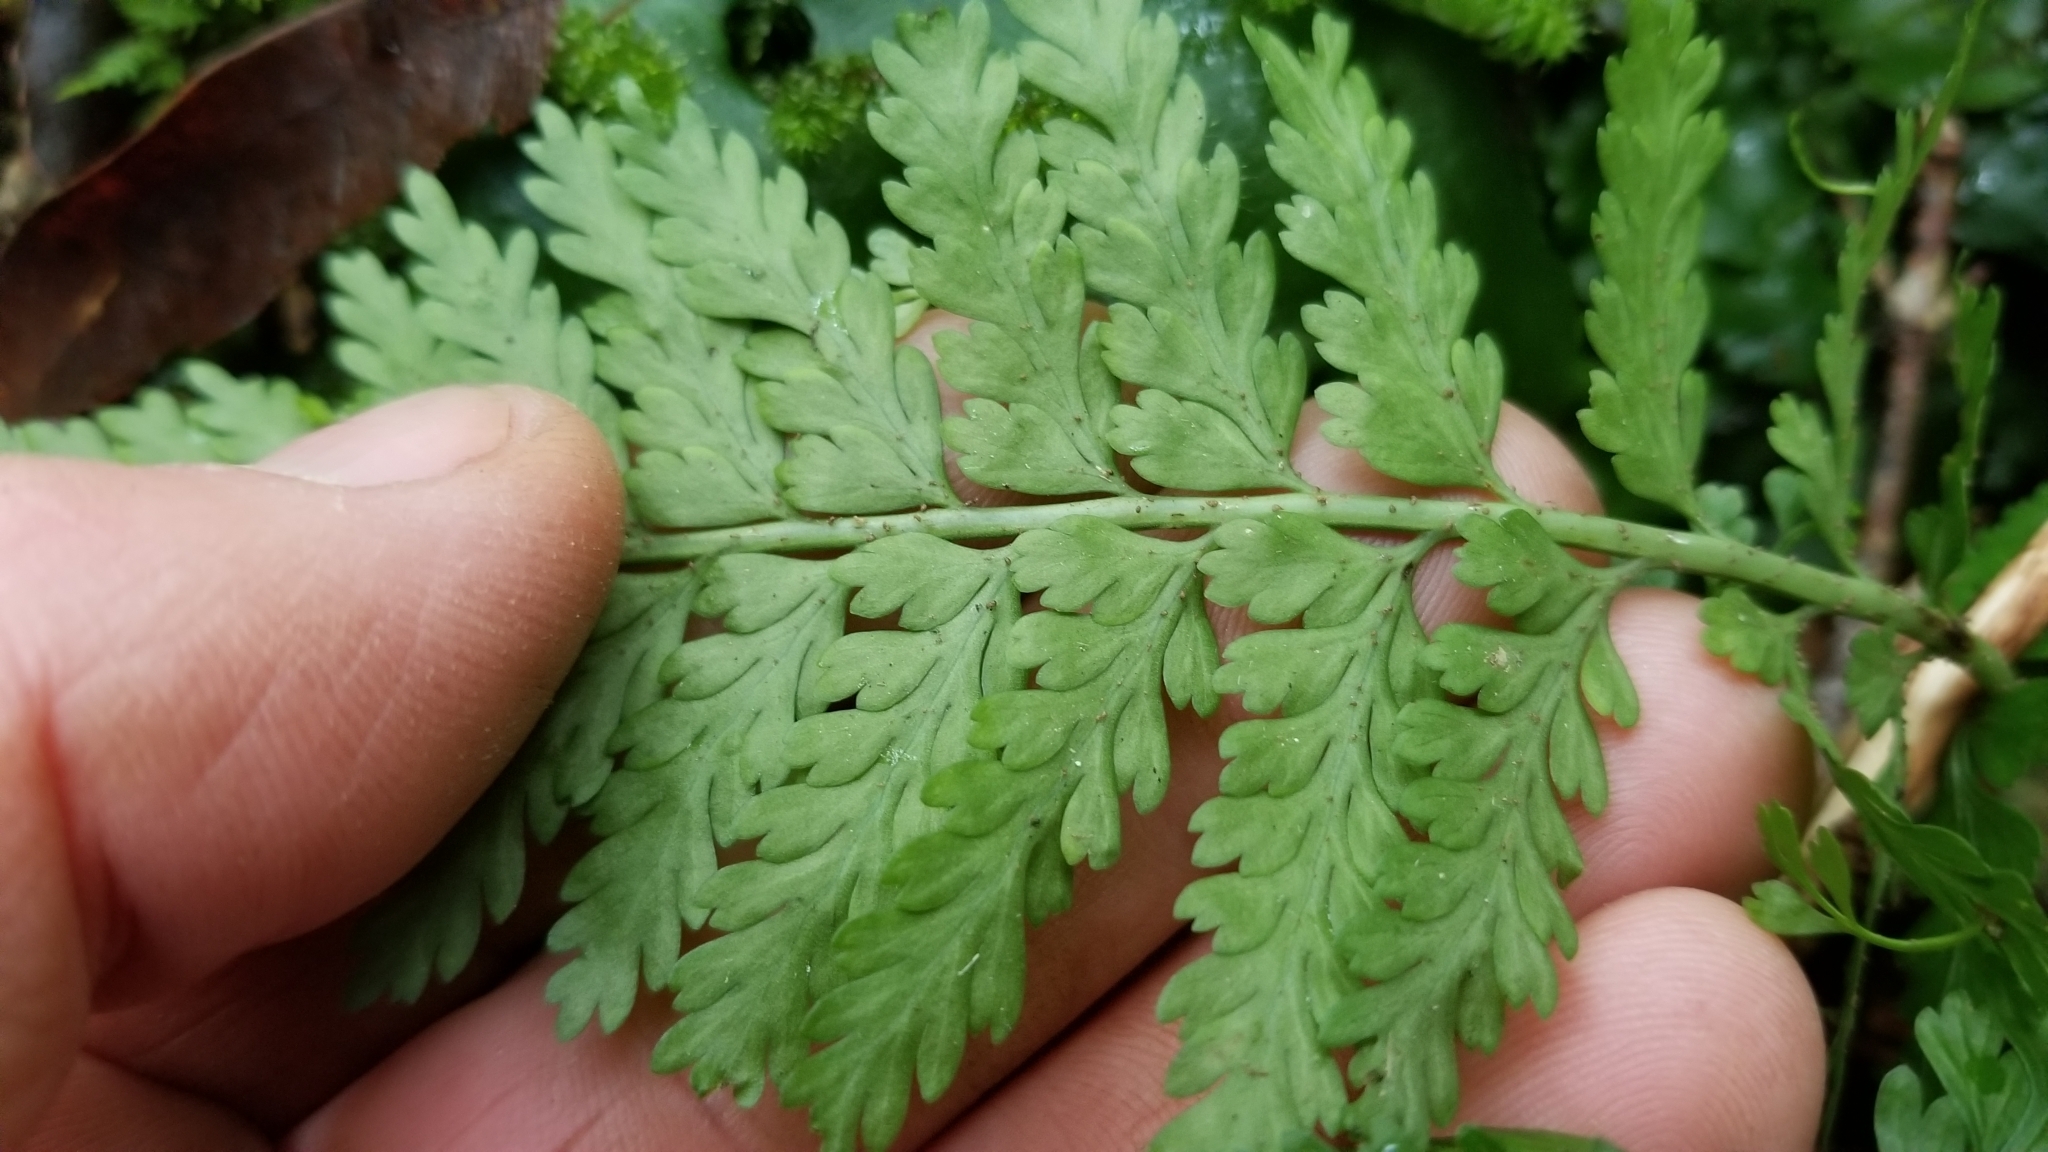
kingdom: Plantae
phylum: Tracheophyta
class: Polypodiopsida
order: Polypodiales
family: Aspleniaceae
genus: Asplenium
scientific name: Asplenium bulbiferum
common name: Mother fern
